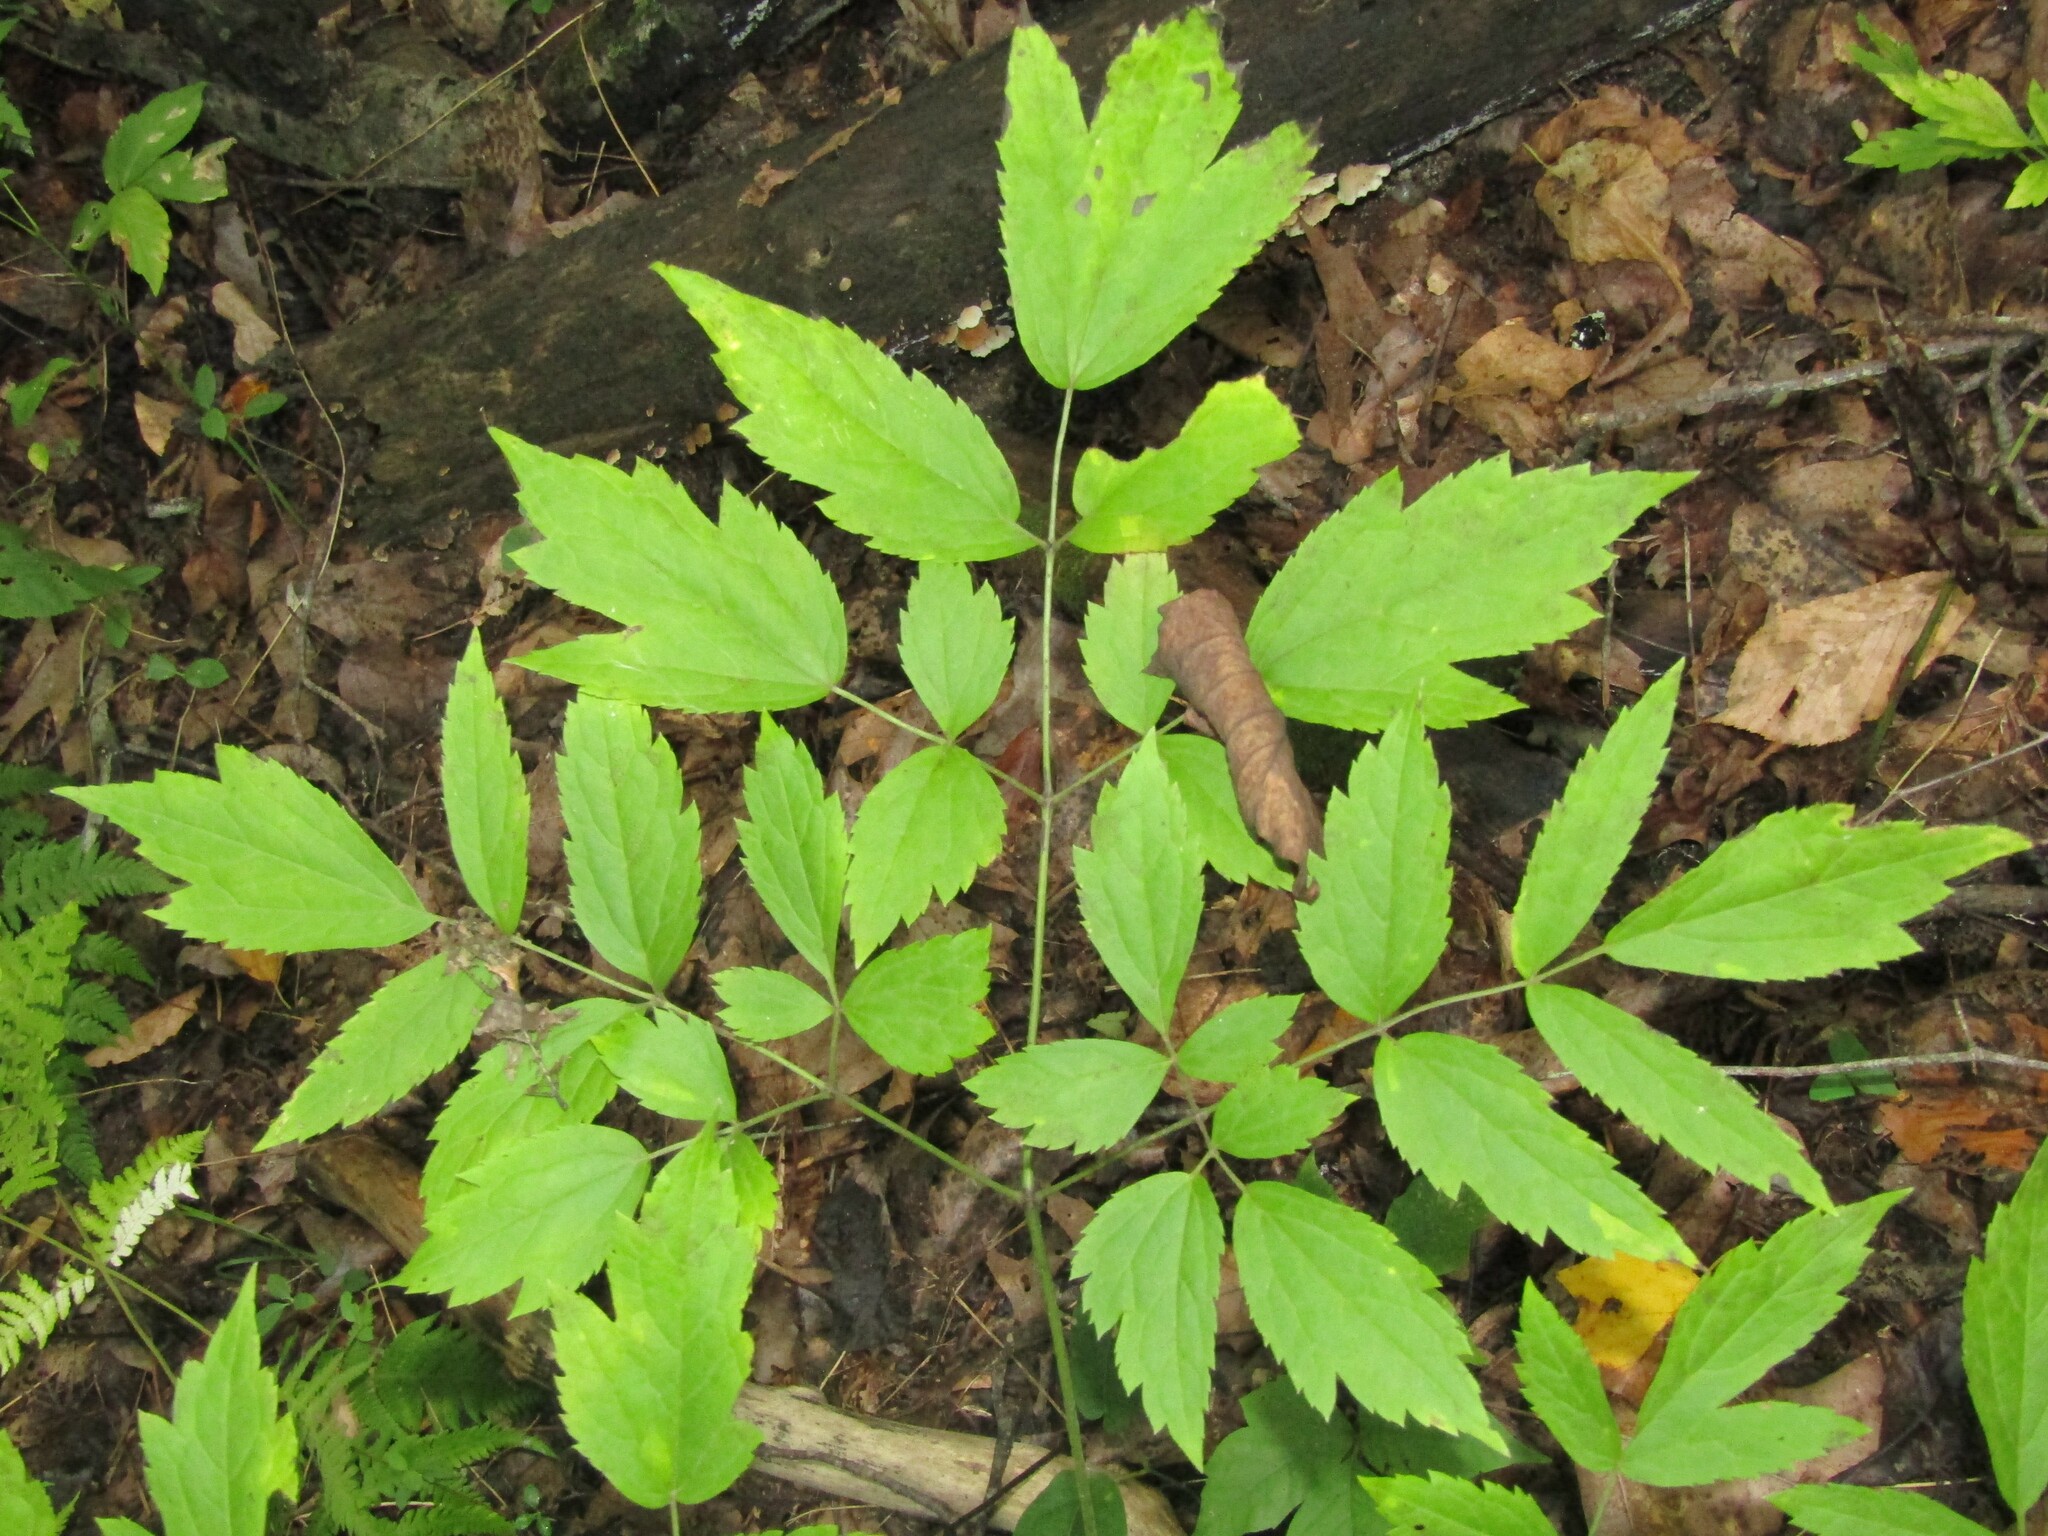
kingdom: Plantae
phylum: Tracheophyta
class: Magnoliopsida
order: Ranunculales
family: Ranunculaceae
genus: Actaea
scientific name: Actaea racemosa
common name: Black cohosh
